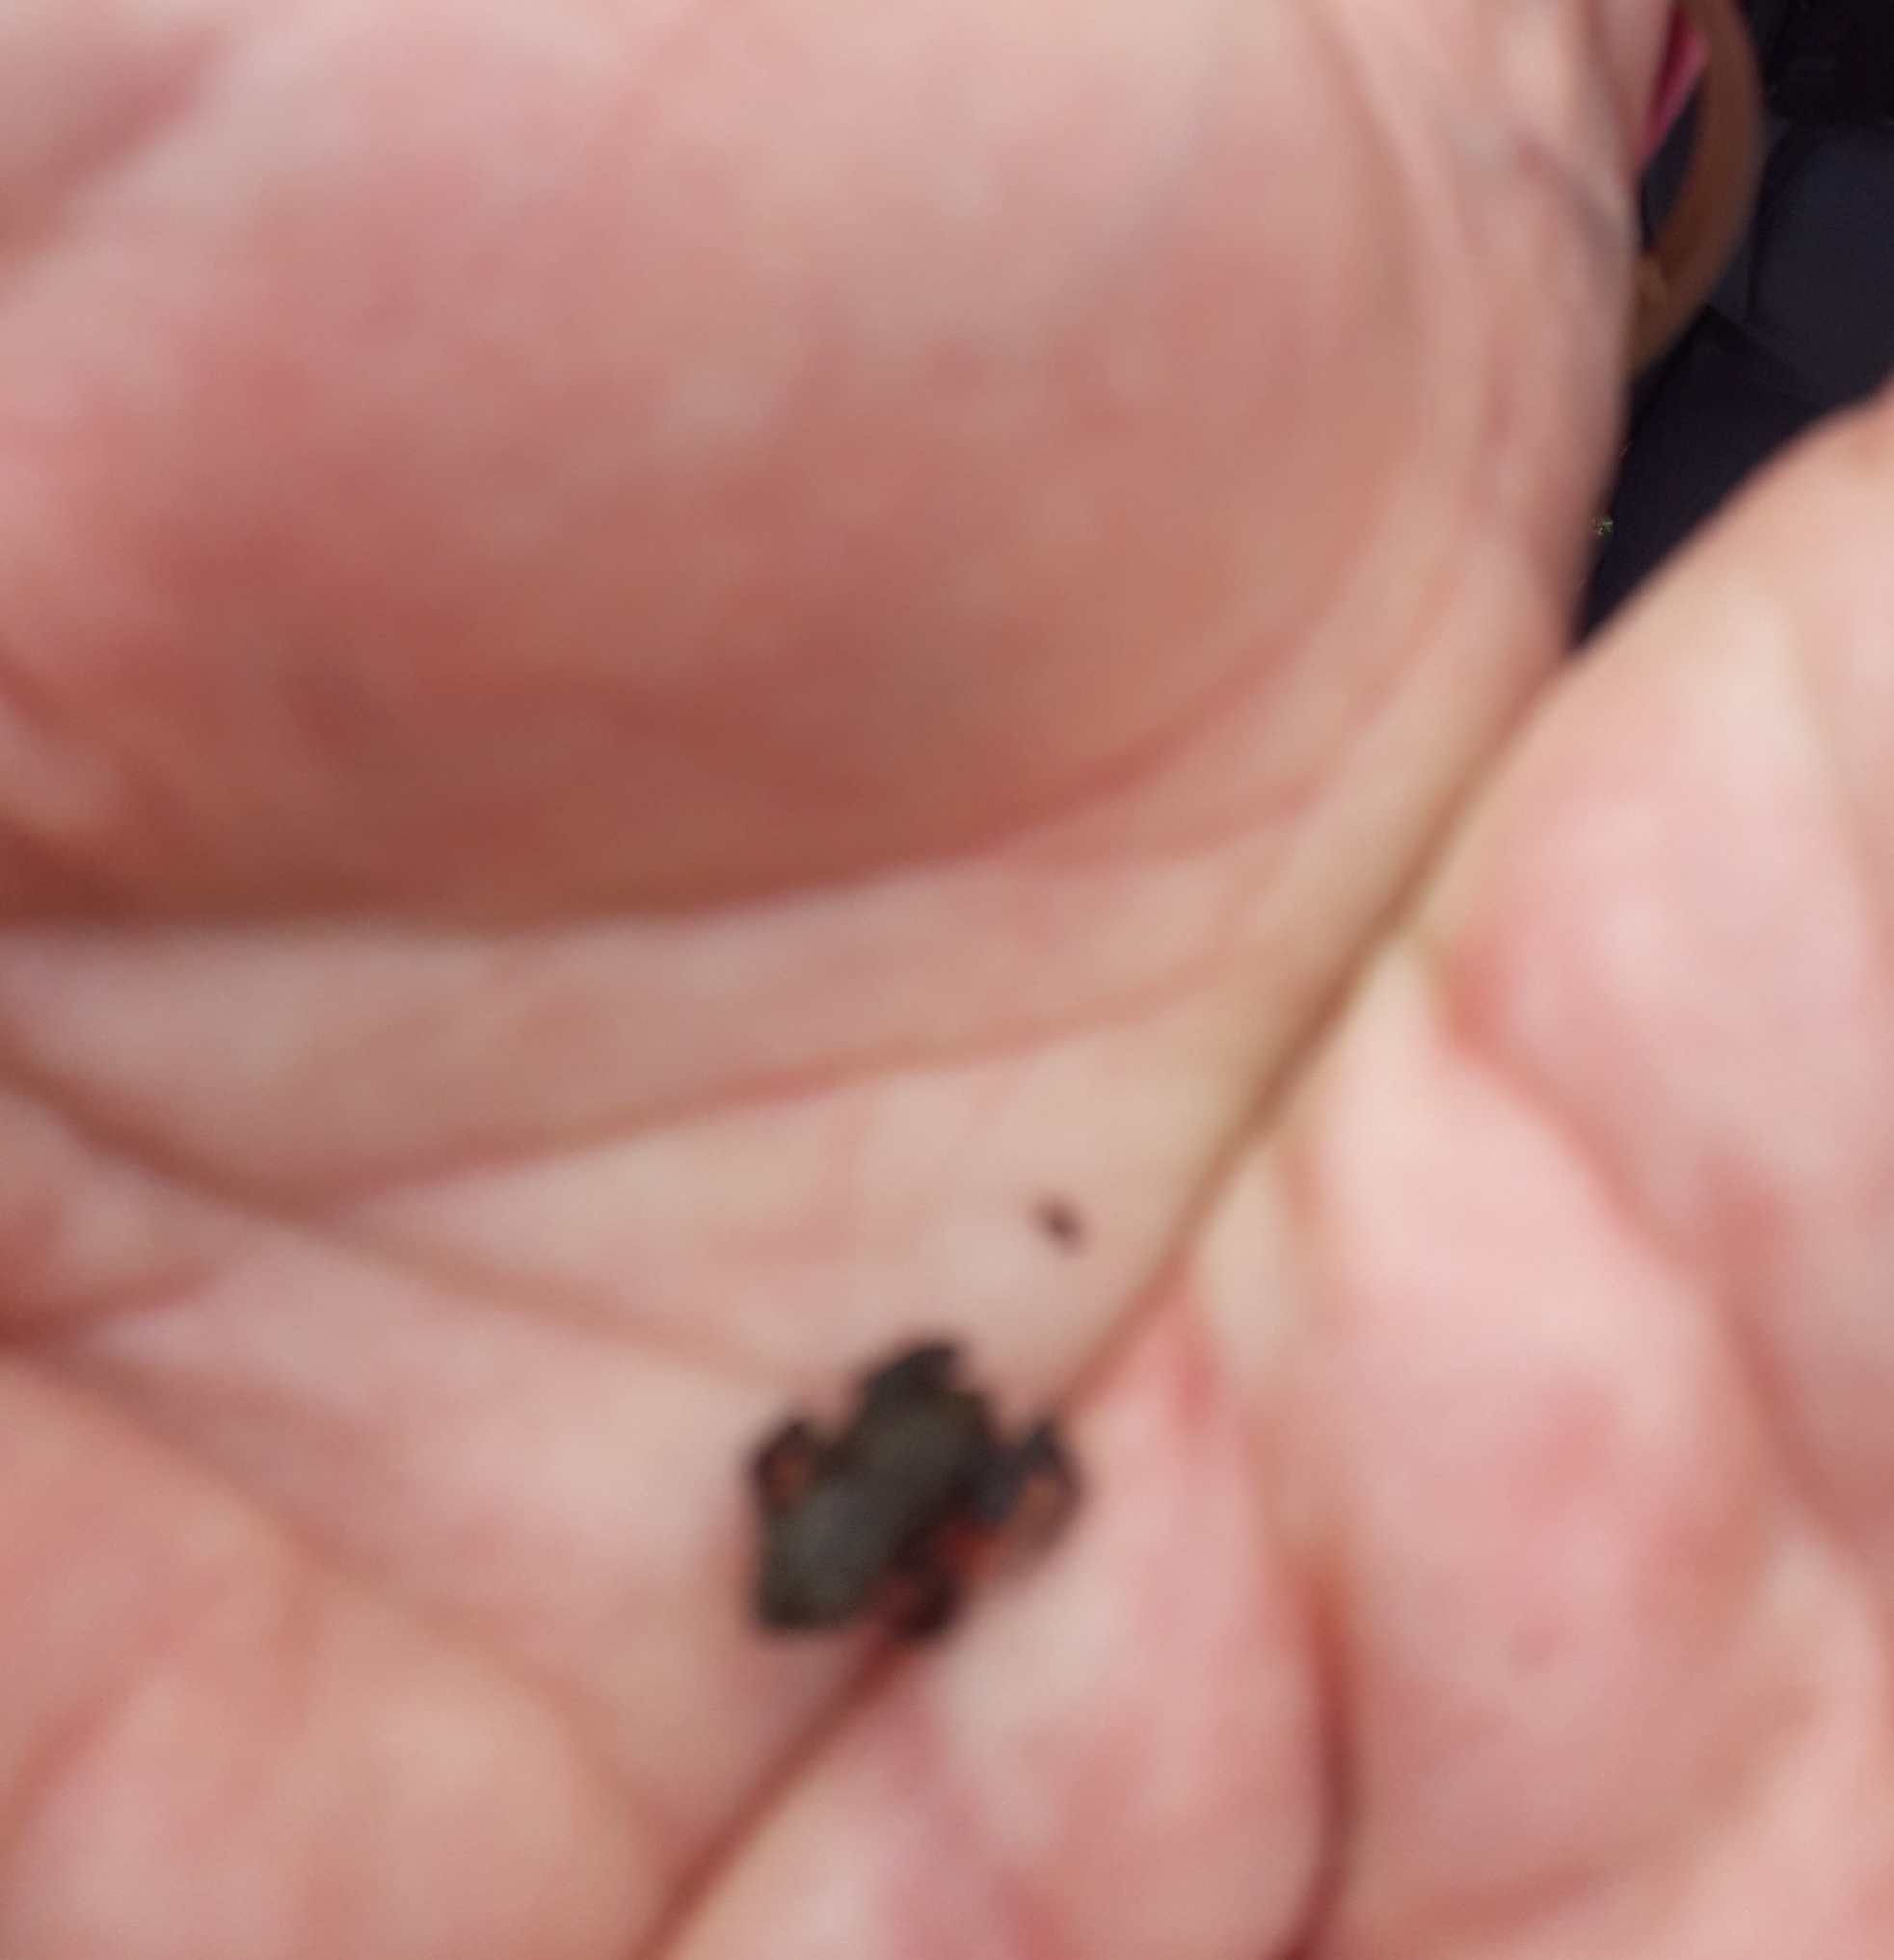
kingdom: Animalia
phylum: Chordata
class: Amphibia
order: Anura
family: Bufonidae
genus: Bufo
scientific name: Bufo bufo
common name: Common toad
